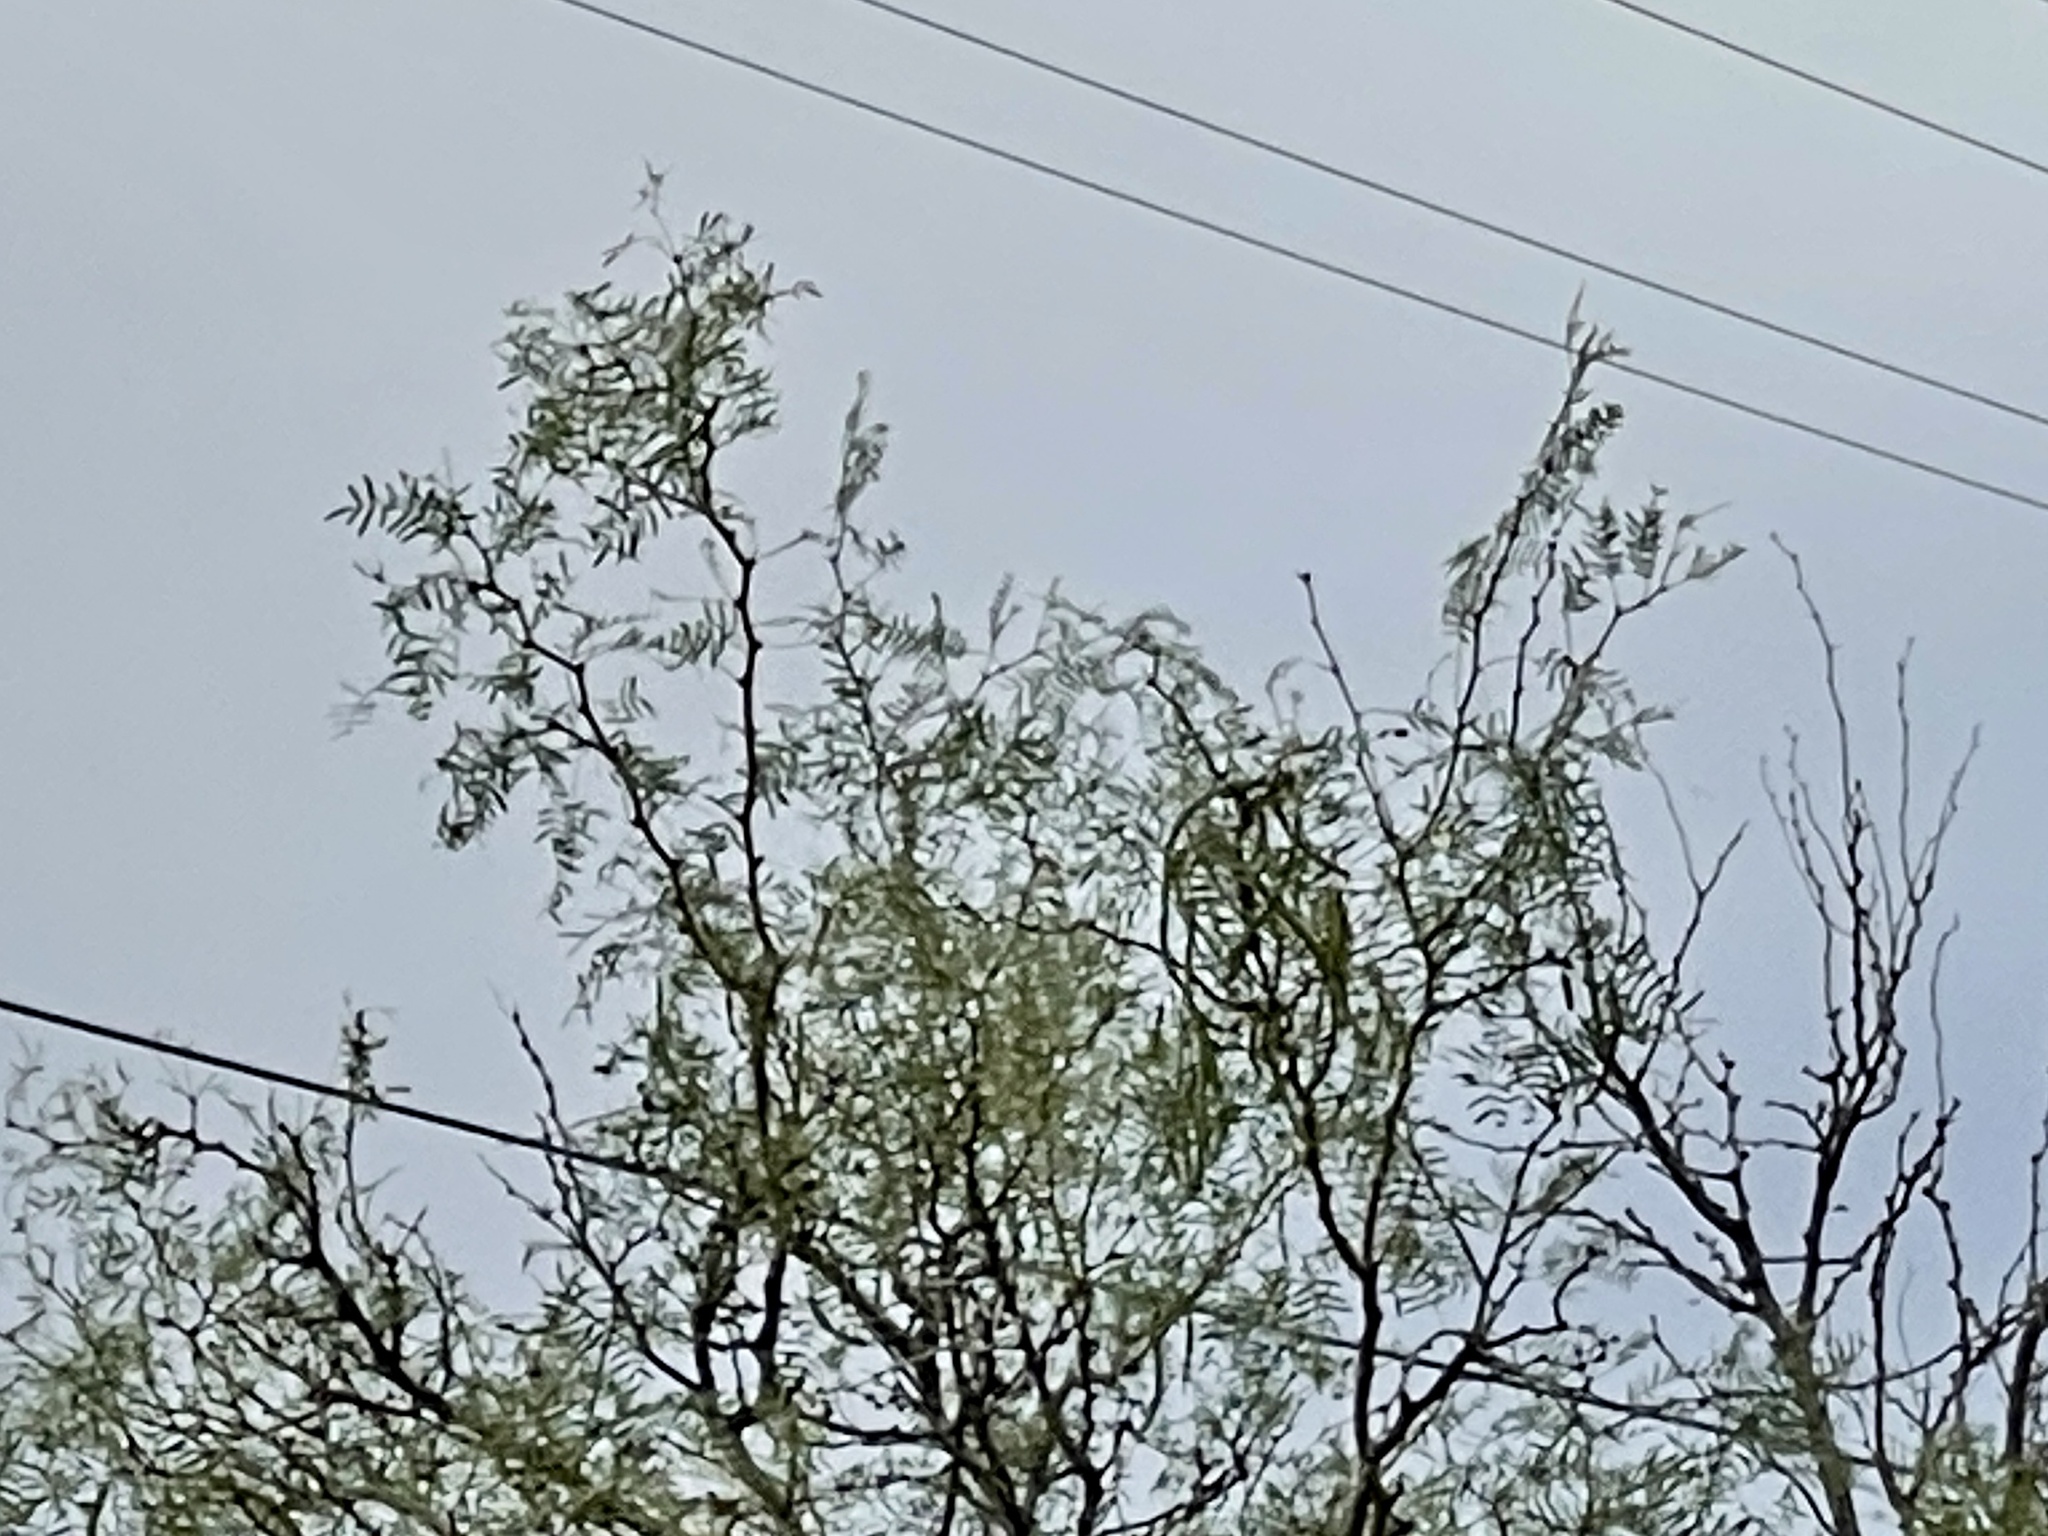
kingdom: Plantae
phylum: Tracheophyta
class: Magnoliopsida
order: Fabales
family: Fabaceae
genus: Prosopis
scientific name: Prosopis glandulosa
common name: Honey mesquite
